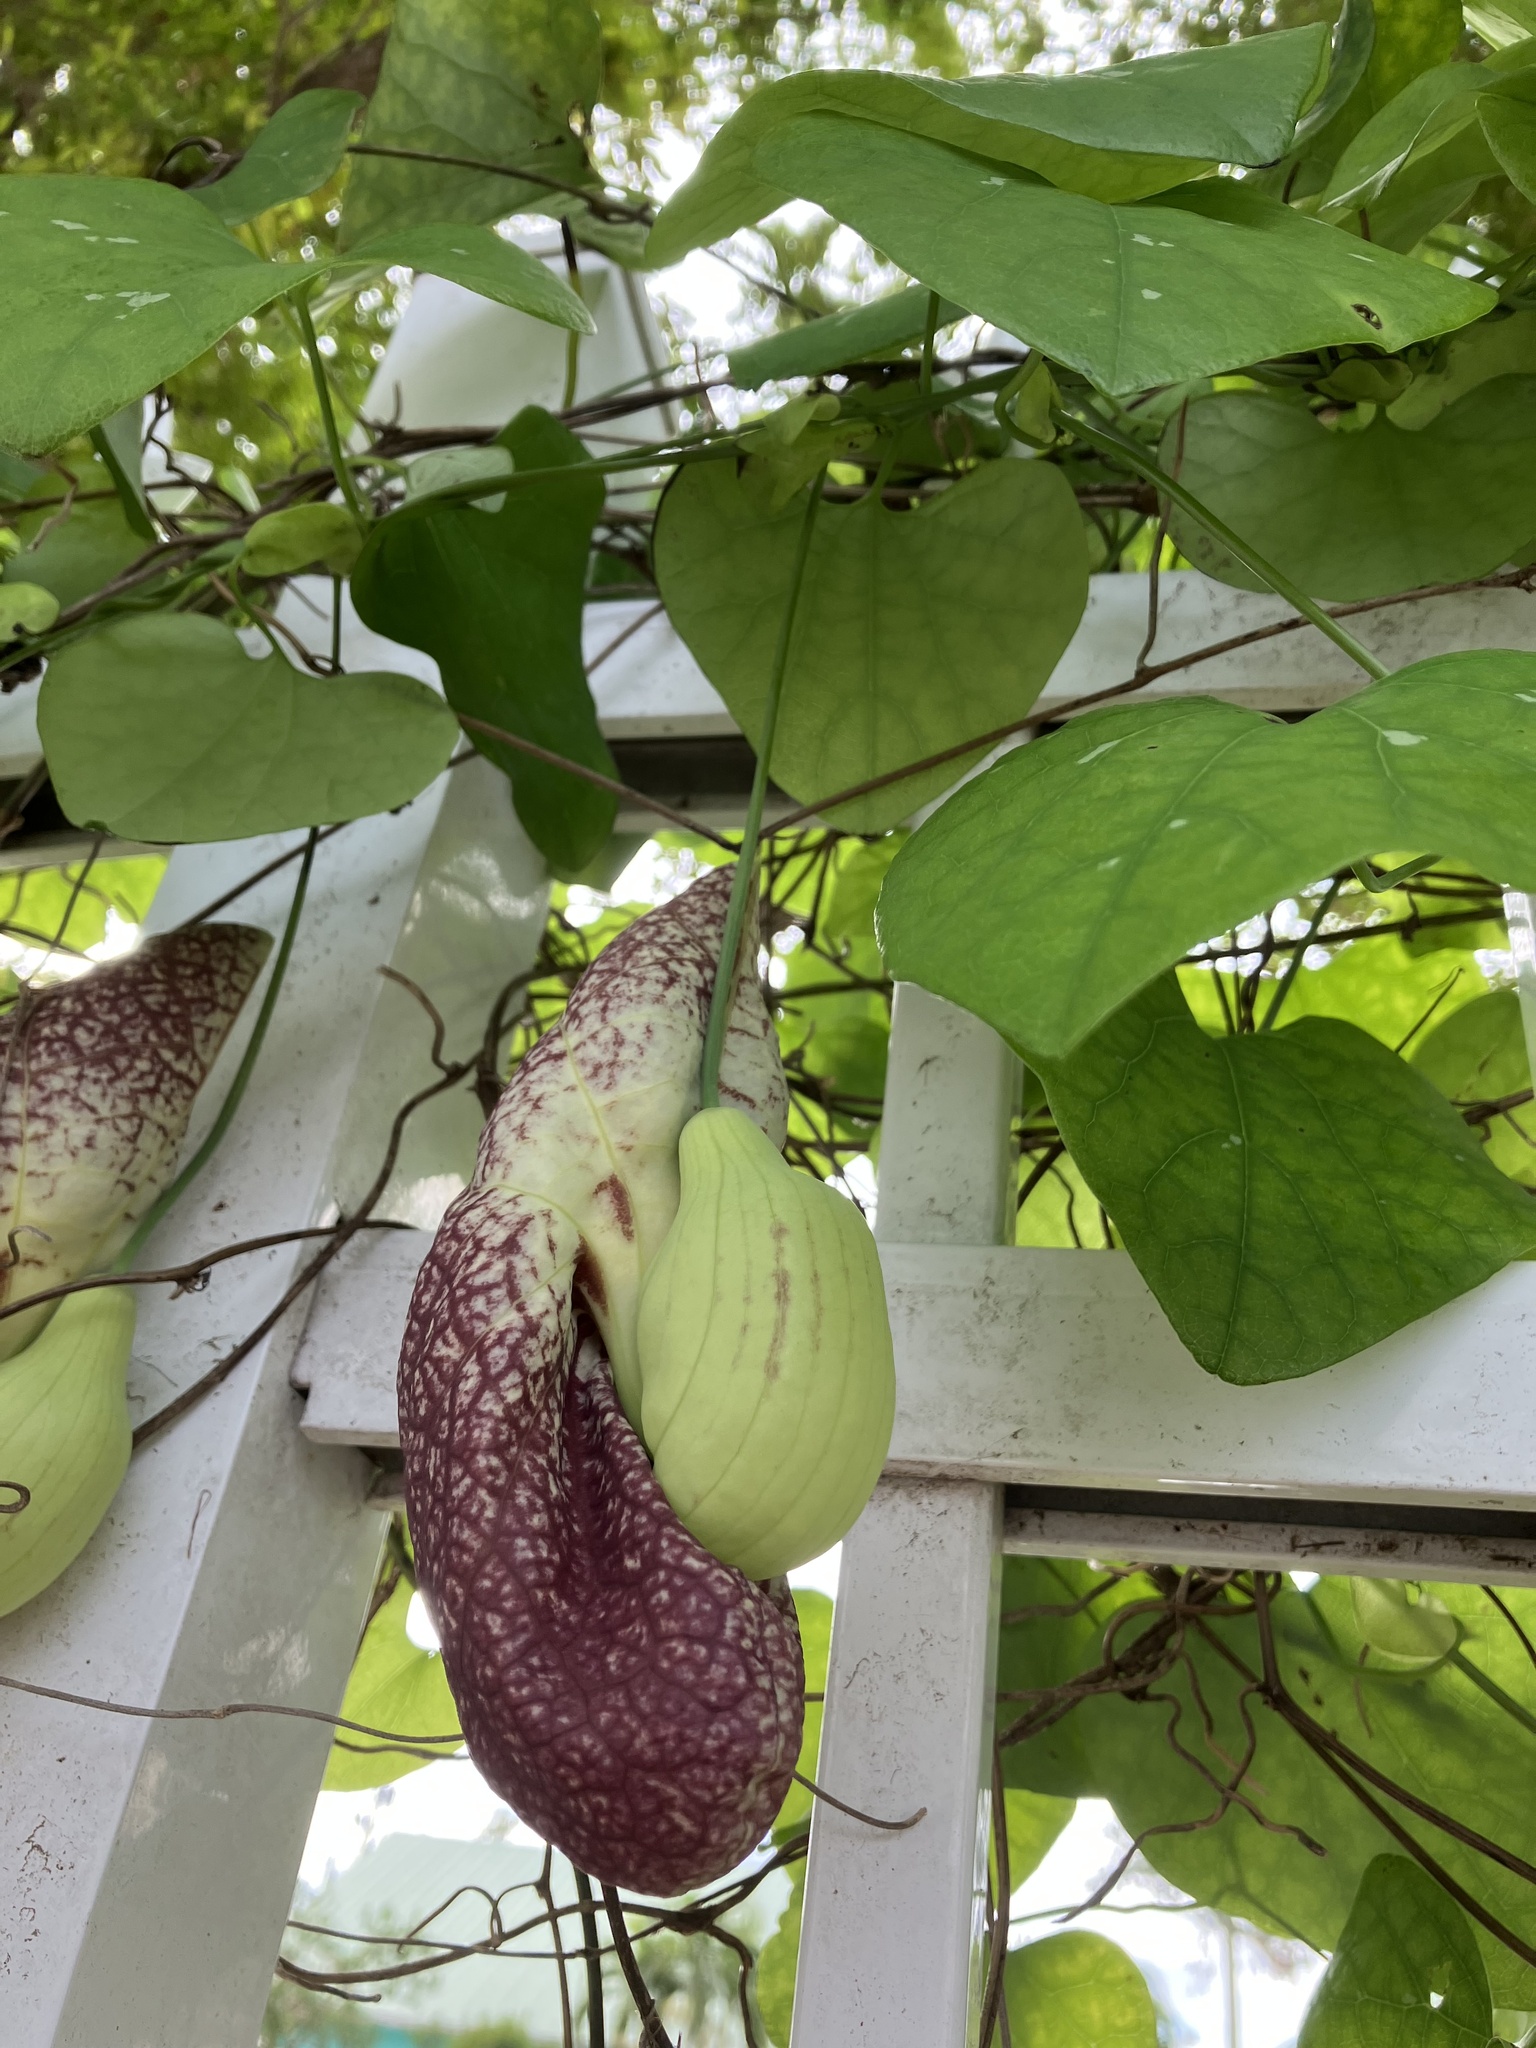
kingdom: Plantae
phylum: Tracheophyta
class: Magnoliopsida
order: Piperales
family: Aristolochiaceae
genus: Aristolochia
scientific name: Aristolochia littoralis
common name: Duck
